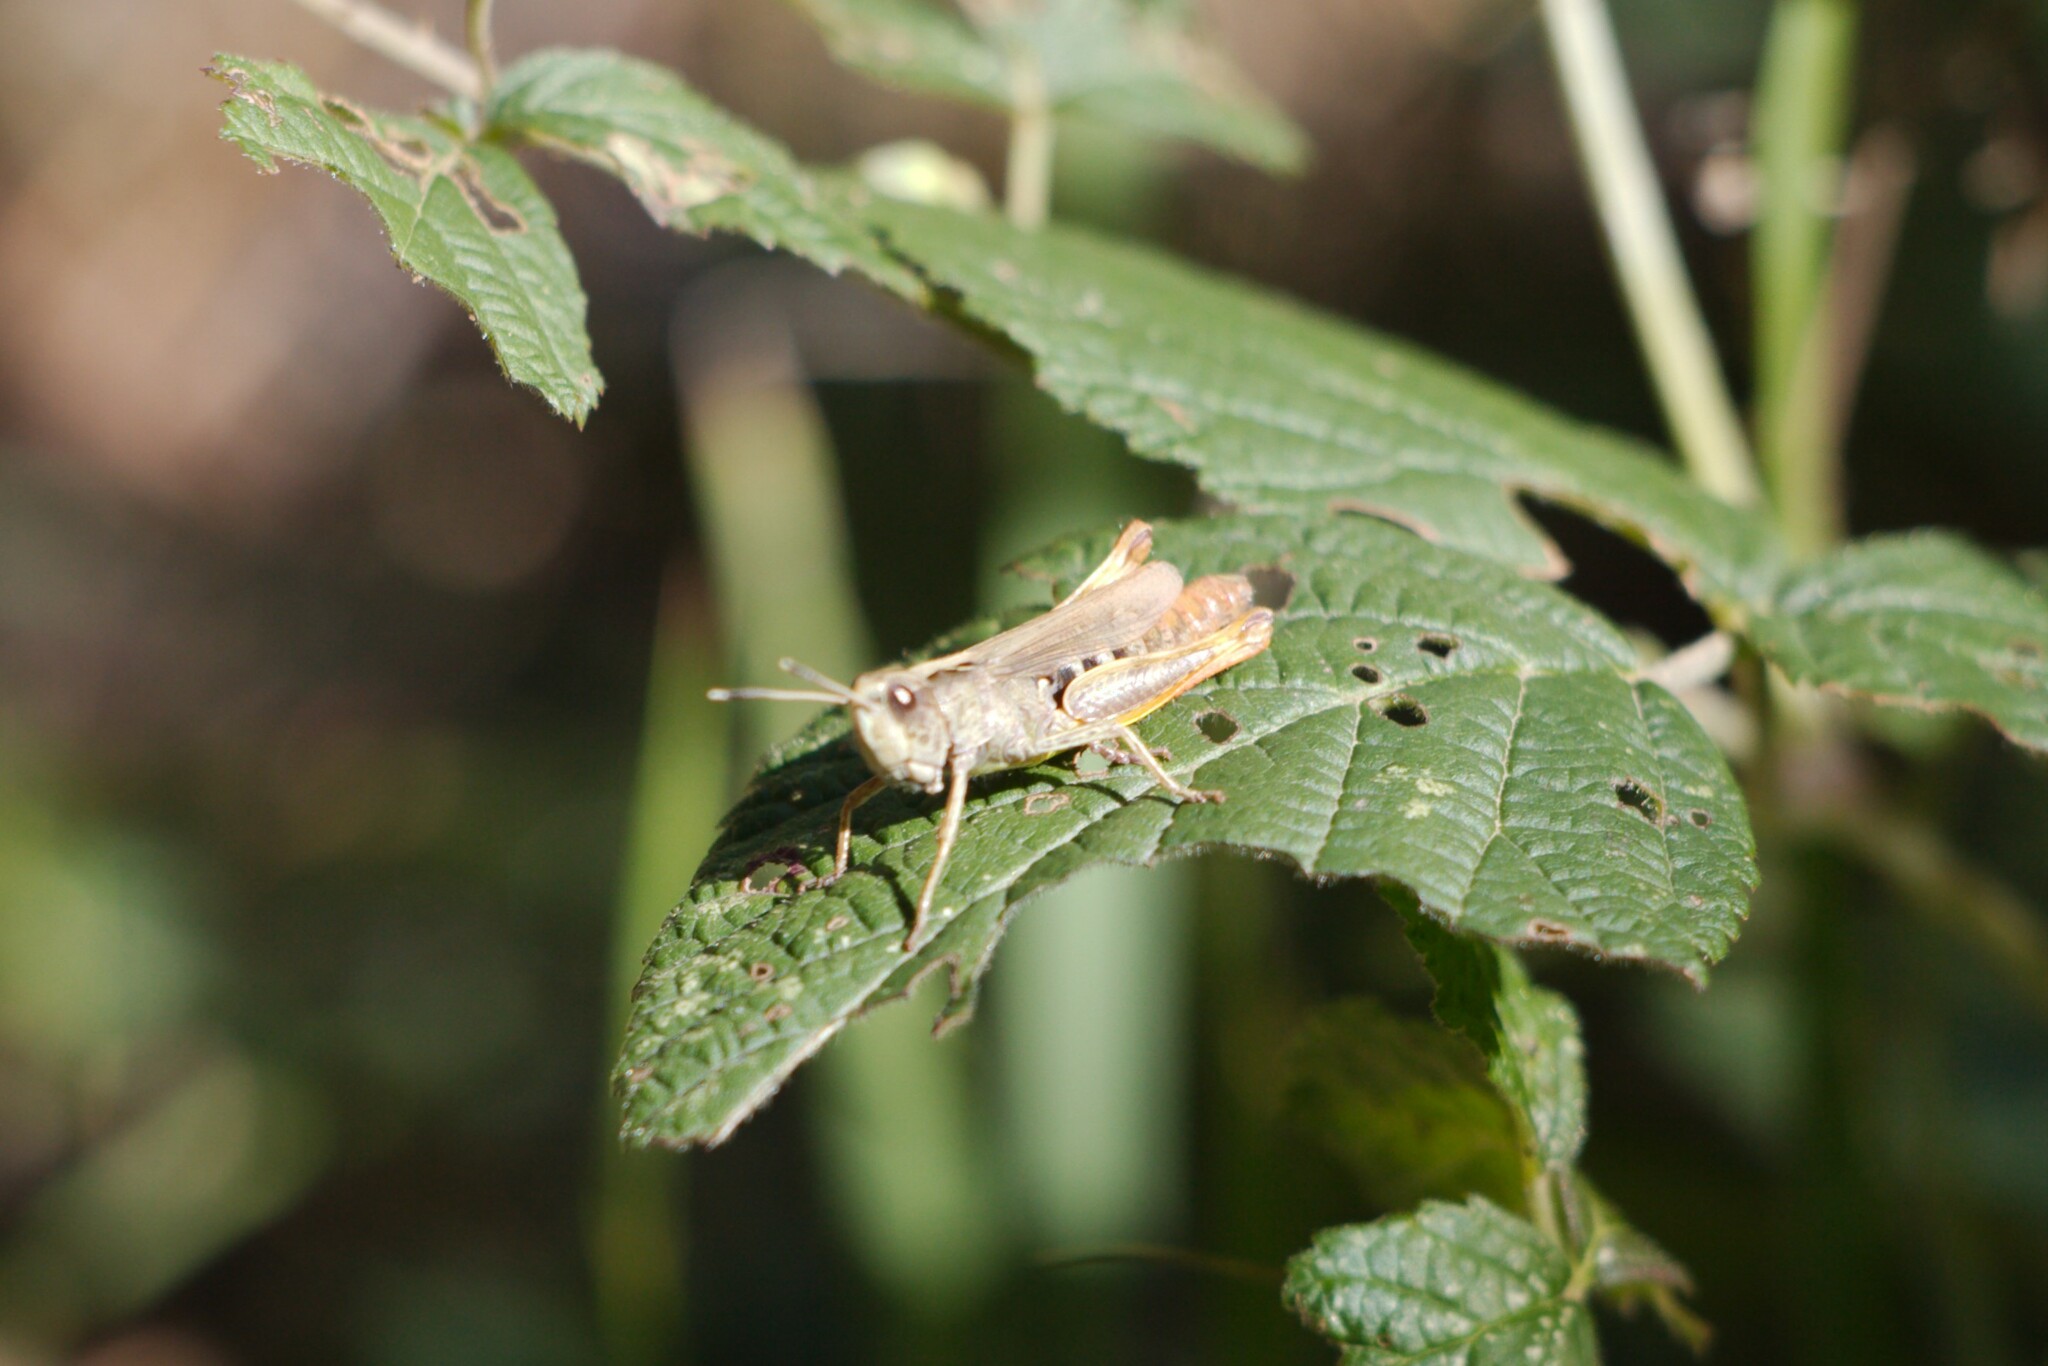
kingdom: Animalia
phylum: Arthropoda
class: Insecta
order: Orthoptera
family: Acrididae
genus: Gomphocerippus
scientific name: Gomphocerippus rufus
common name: Rufous grasshopper
